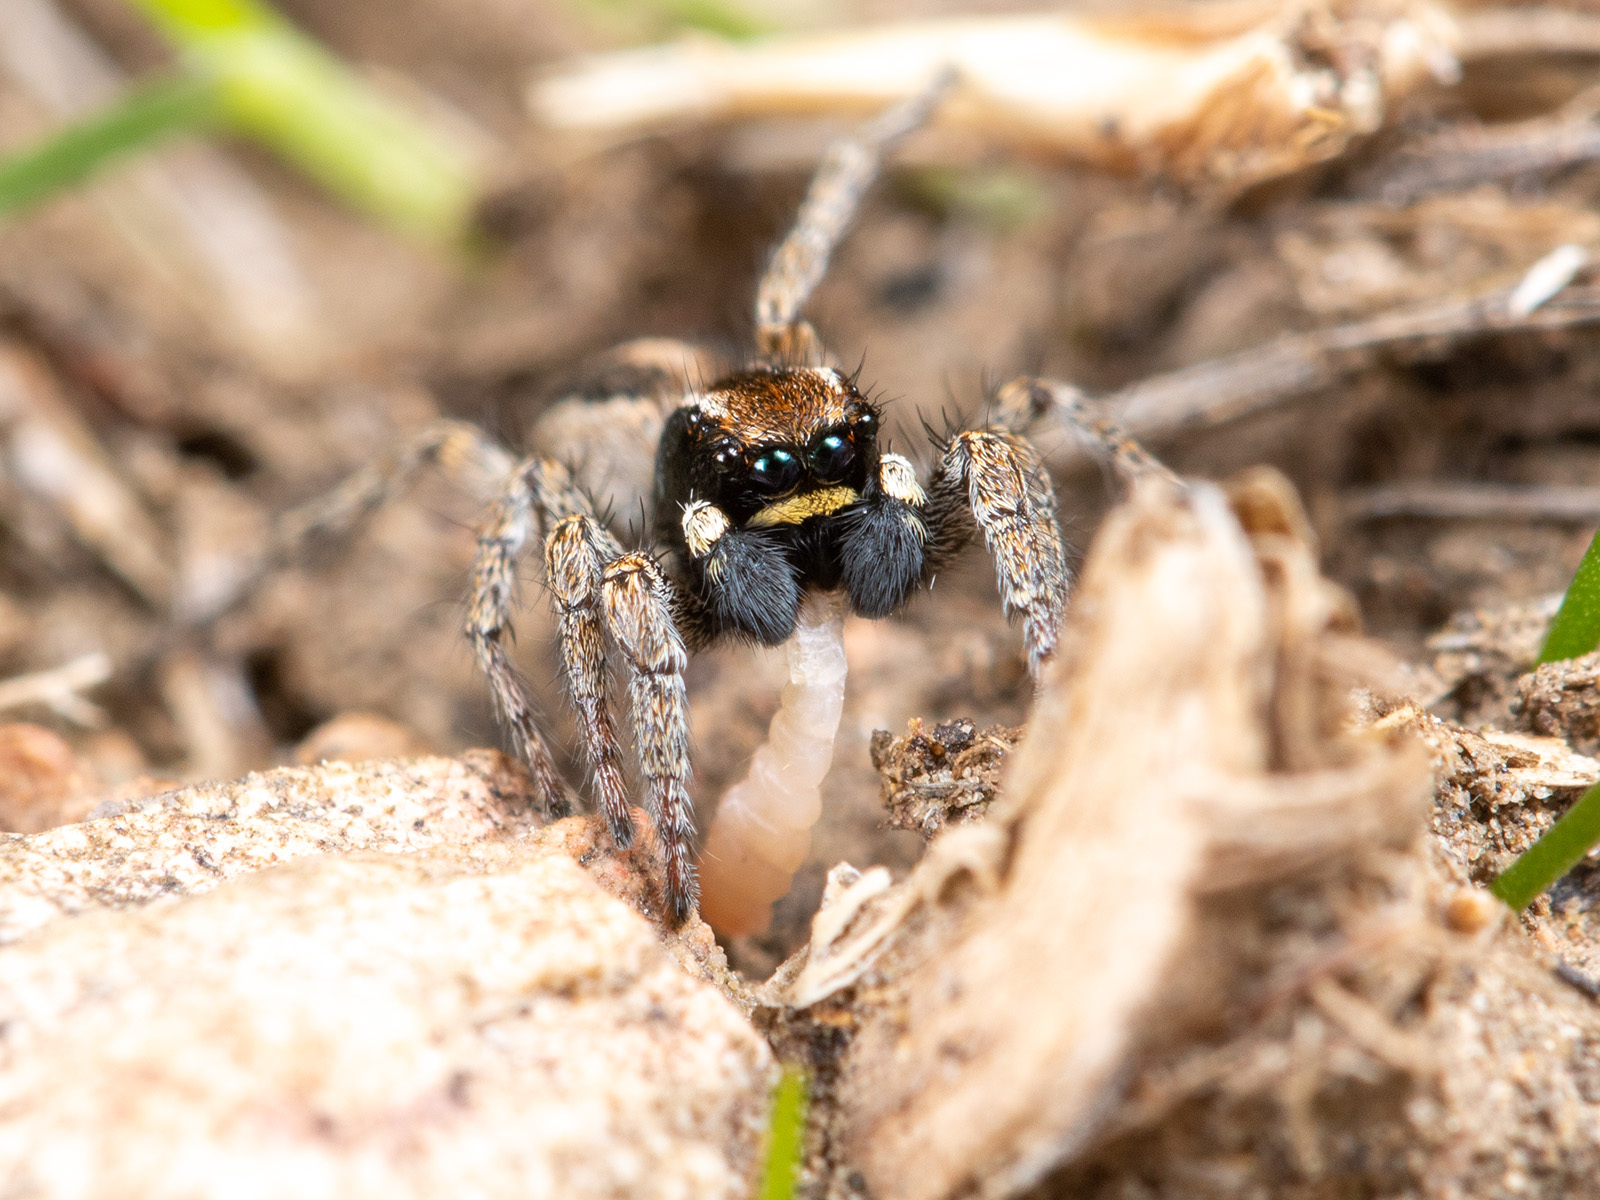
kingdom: Animalia
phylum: Arthropoda
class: Arachnida
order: Araneae
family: Salticidae
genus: Phlegra
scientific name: Phlegra andreevae
